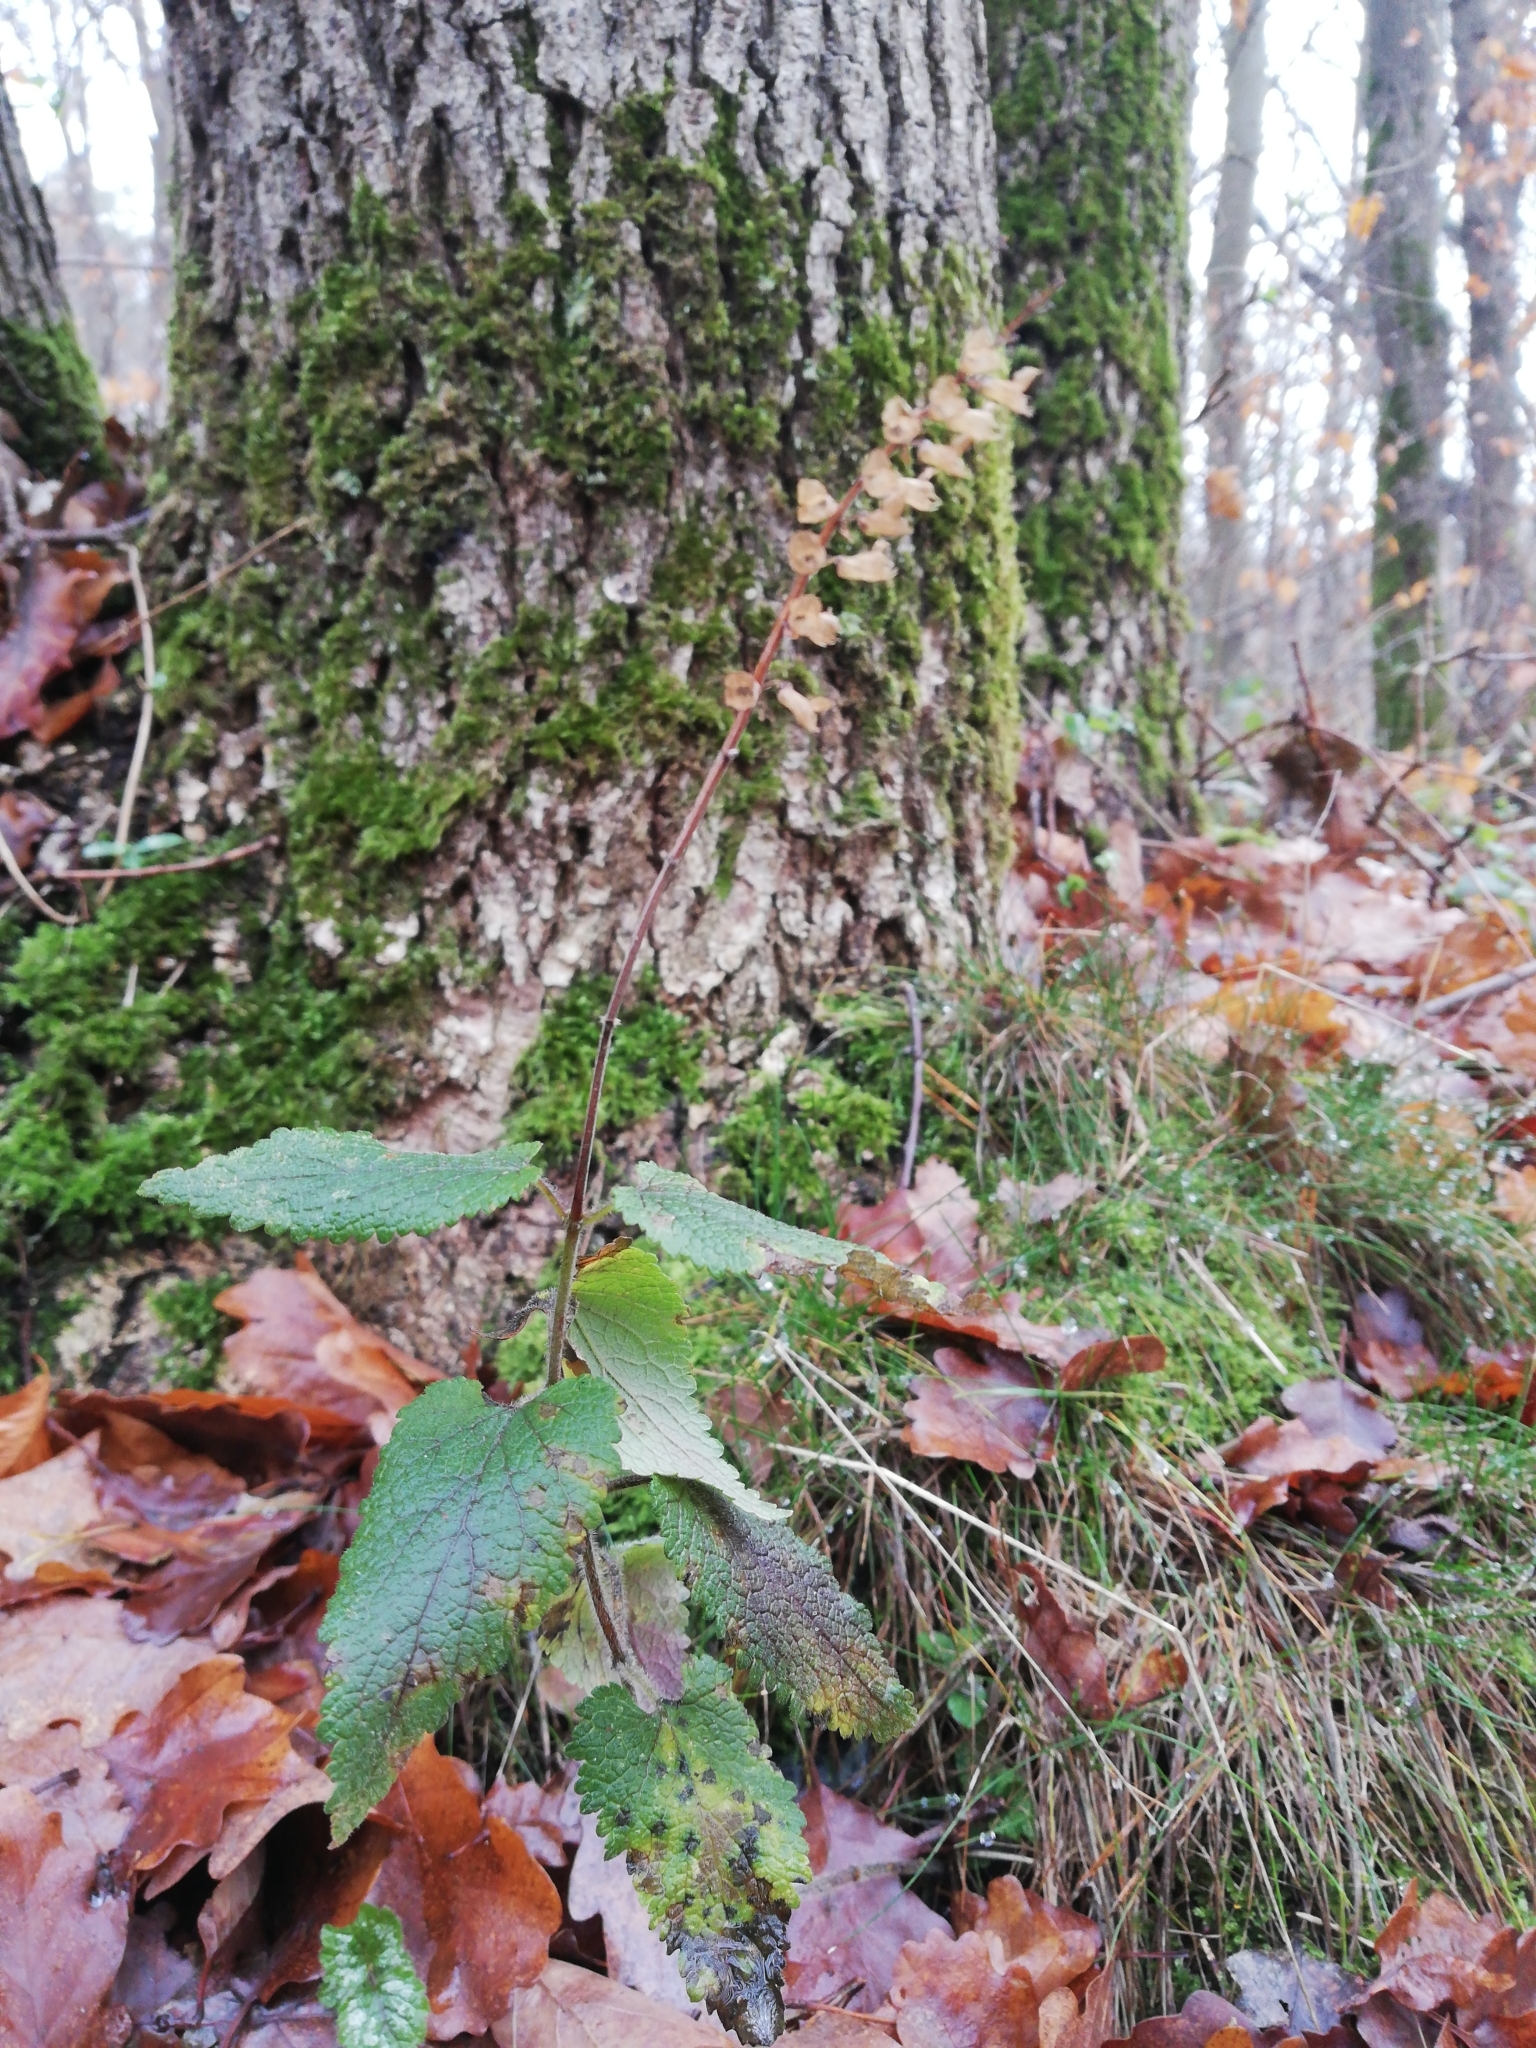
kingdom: Plantae
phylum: Tracheophyta
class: Magnoliopsida
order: Lamiales
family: Lamiaceae
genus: Teucrium
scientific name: Teucrium scorodonia
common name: Woodland germander
